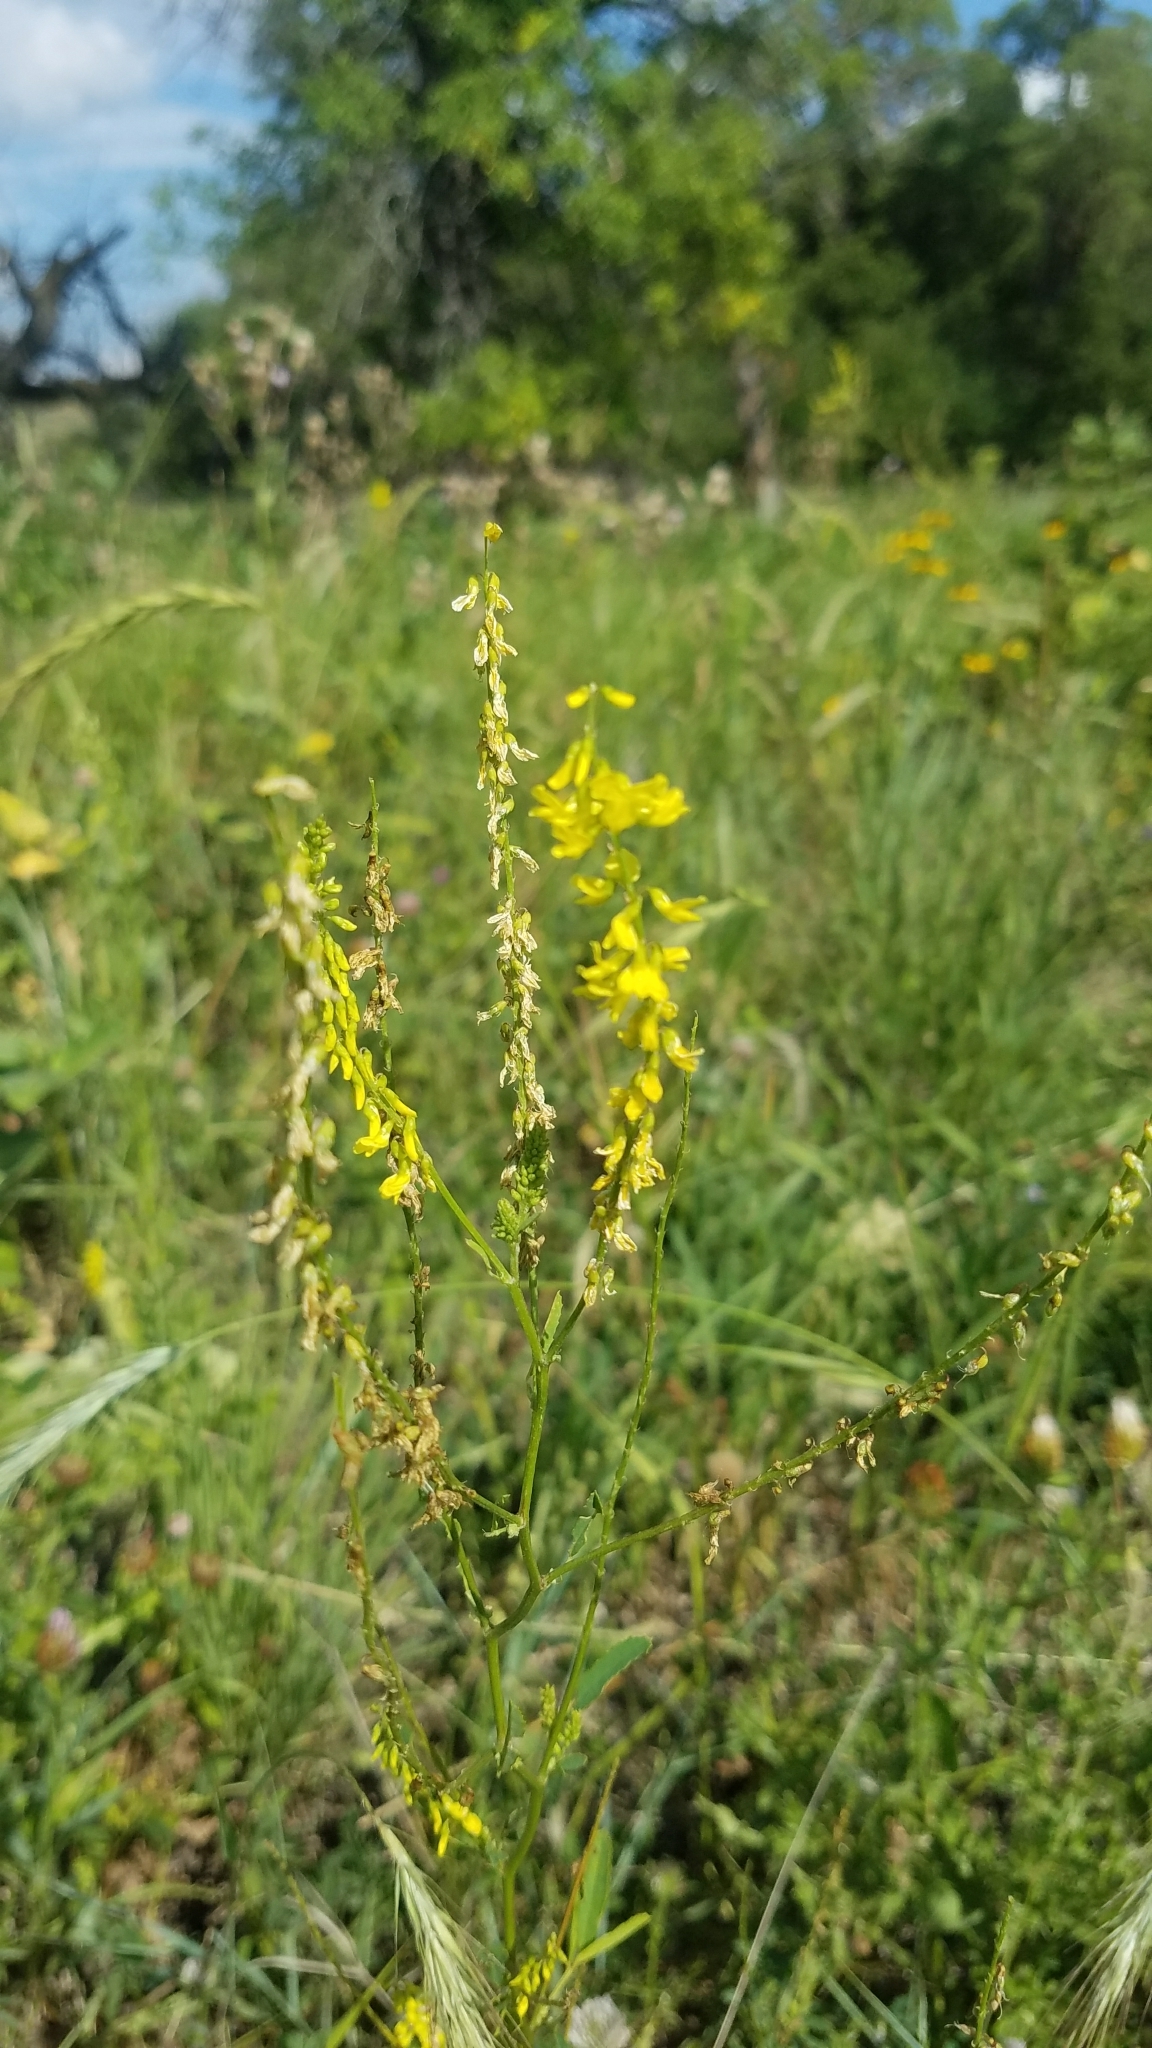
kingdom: Plantae
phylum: Tracheophyta
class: Magnoliopsida
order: Fabales
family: Fabaceae
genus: Melilotus
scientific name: Melilotus officinalis
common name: Sweetclover
